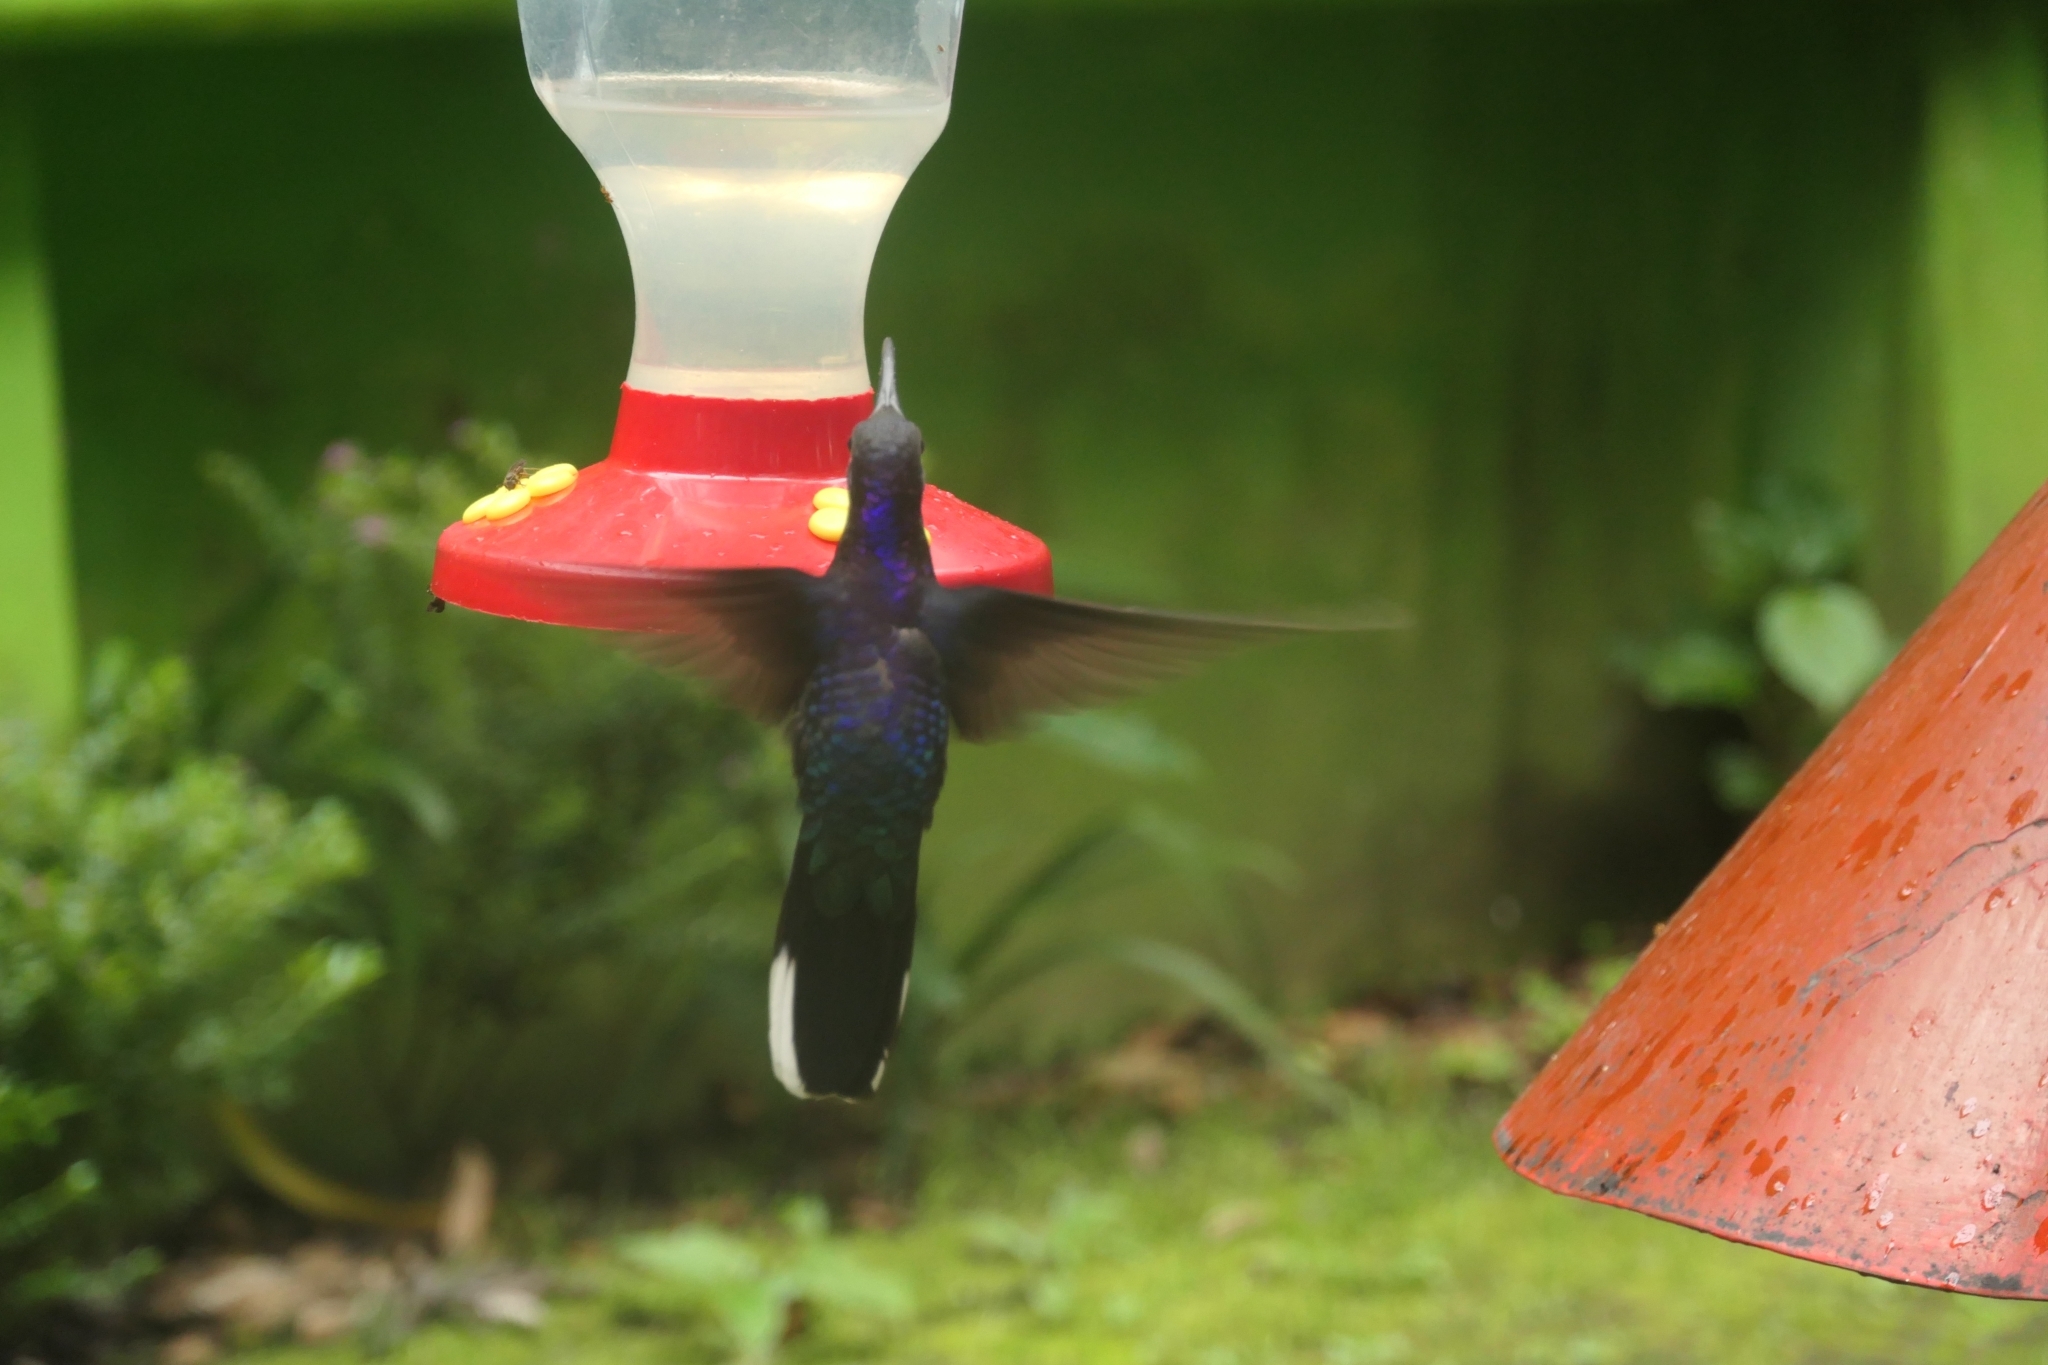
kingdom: Animalia
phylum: Chordata
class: Aves
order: Apodiformes
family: Trochilidae
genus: Campylopterus
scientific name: Campylopterus hemileucurus
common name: Violet sabrewing
